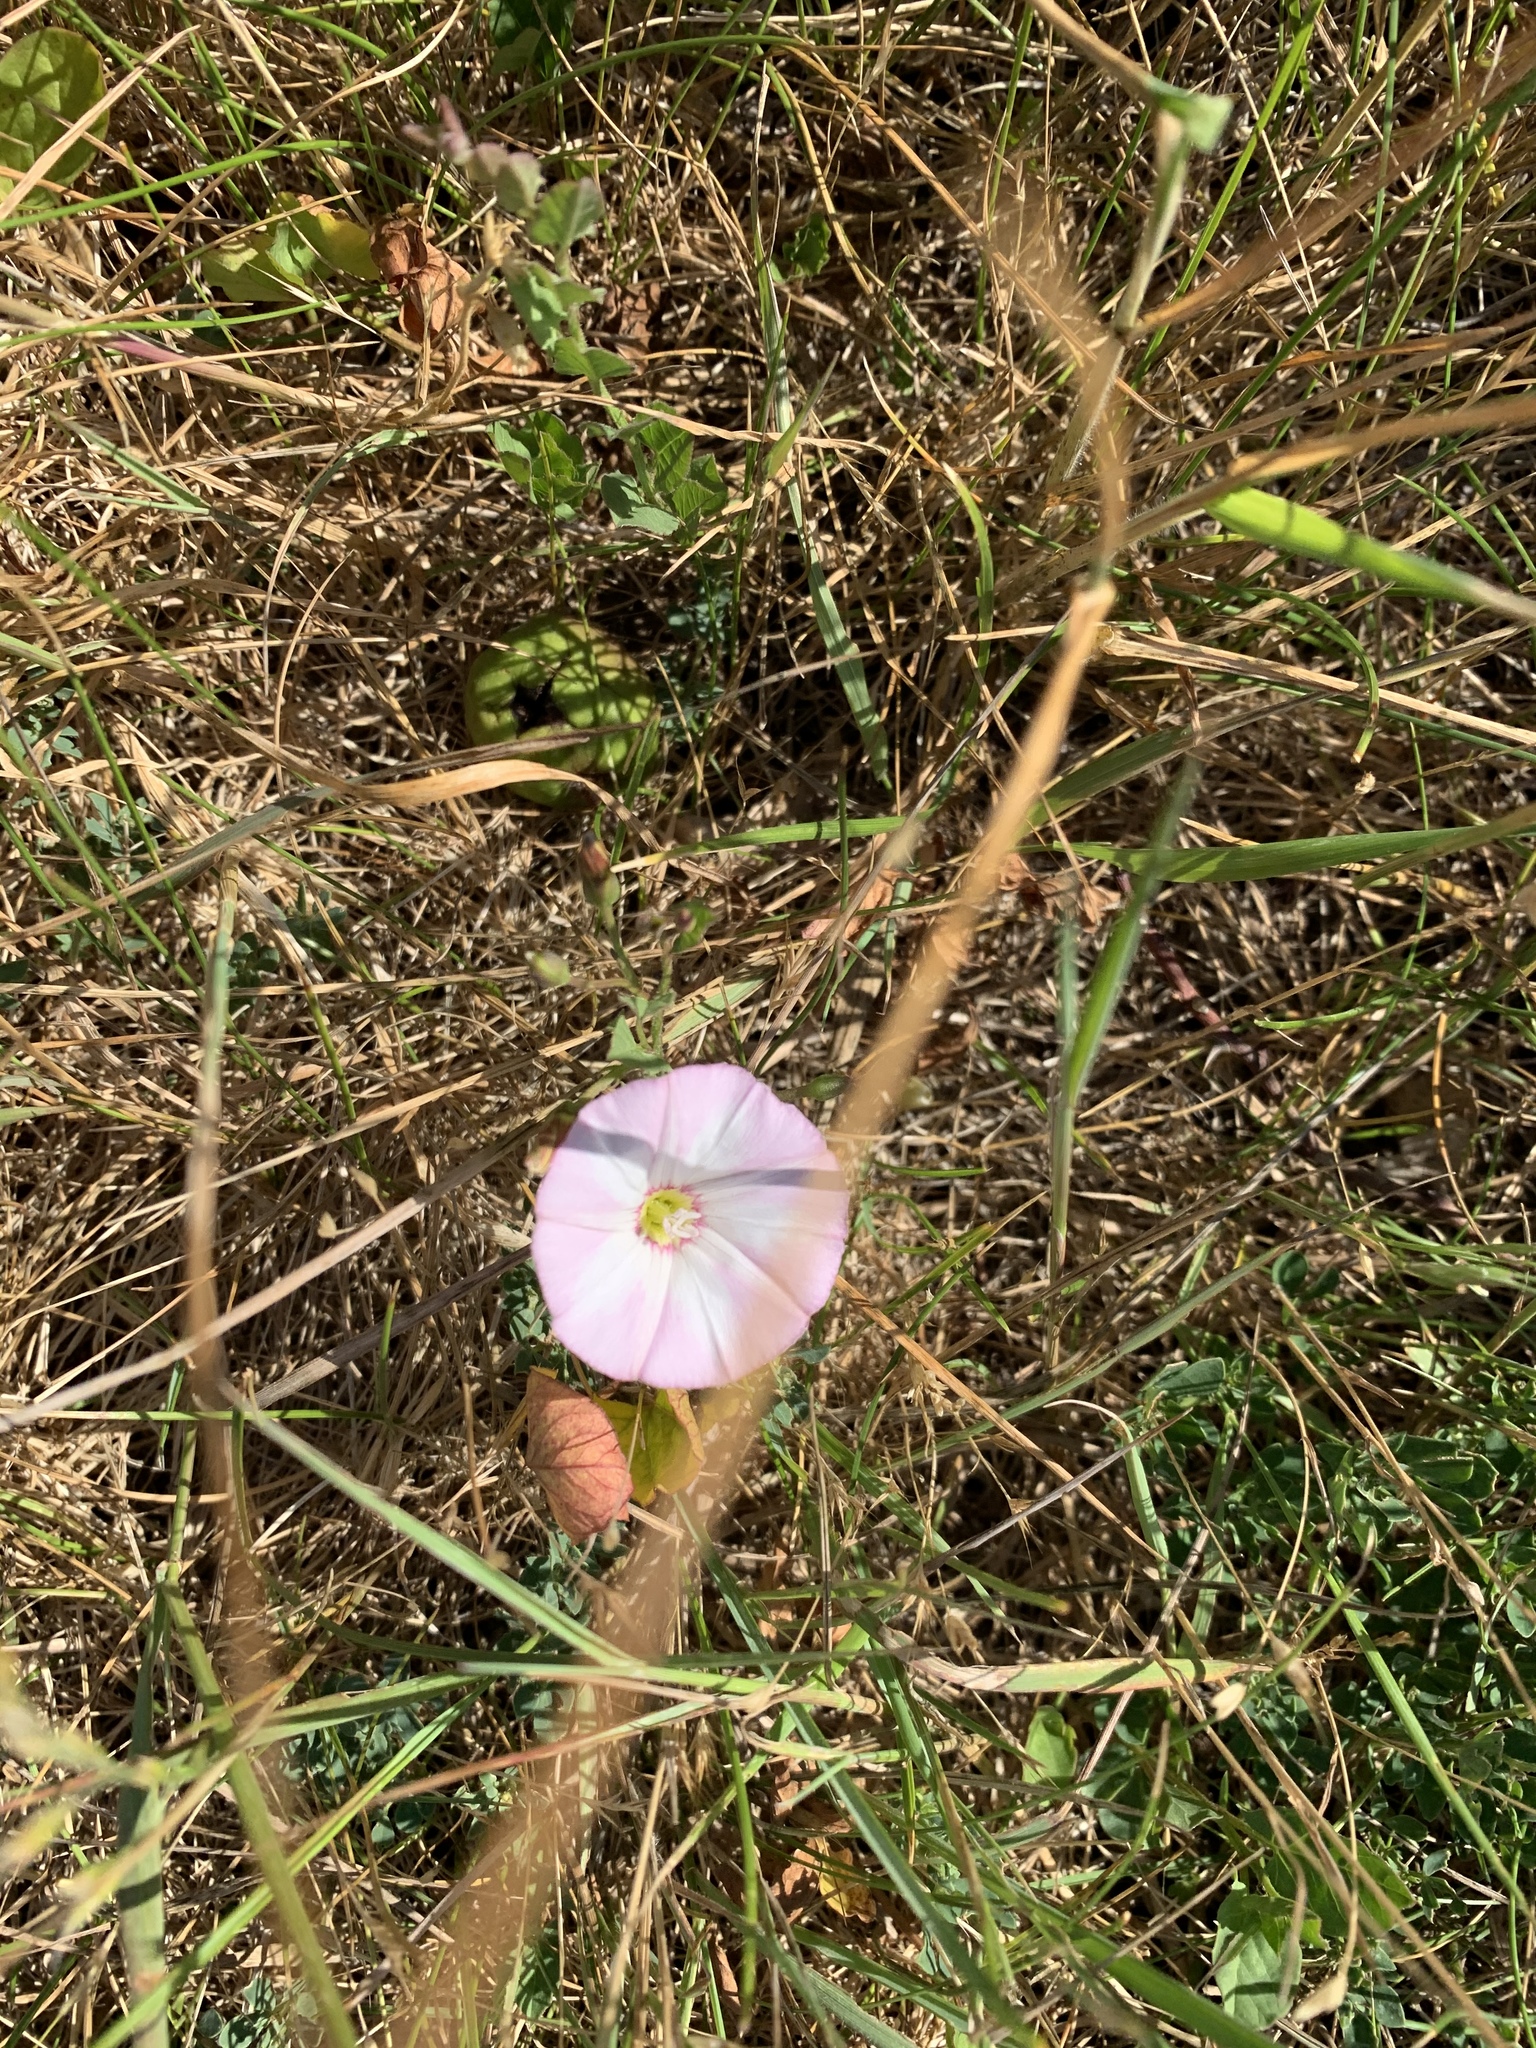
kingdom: Plantae
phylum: Tracheophyta
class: Magnoliopsida
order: Solanales
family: Convolvulaceae
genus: Convolvulus
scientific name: Convolvulus arvensis
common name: Field bindweed
